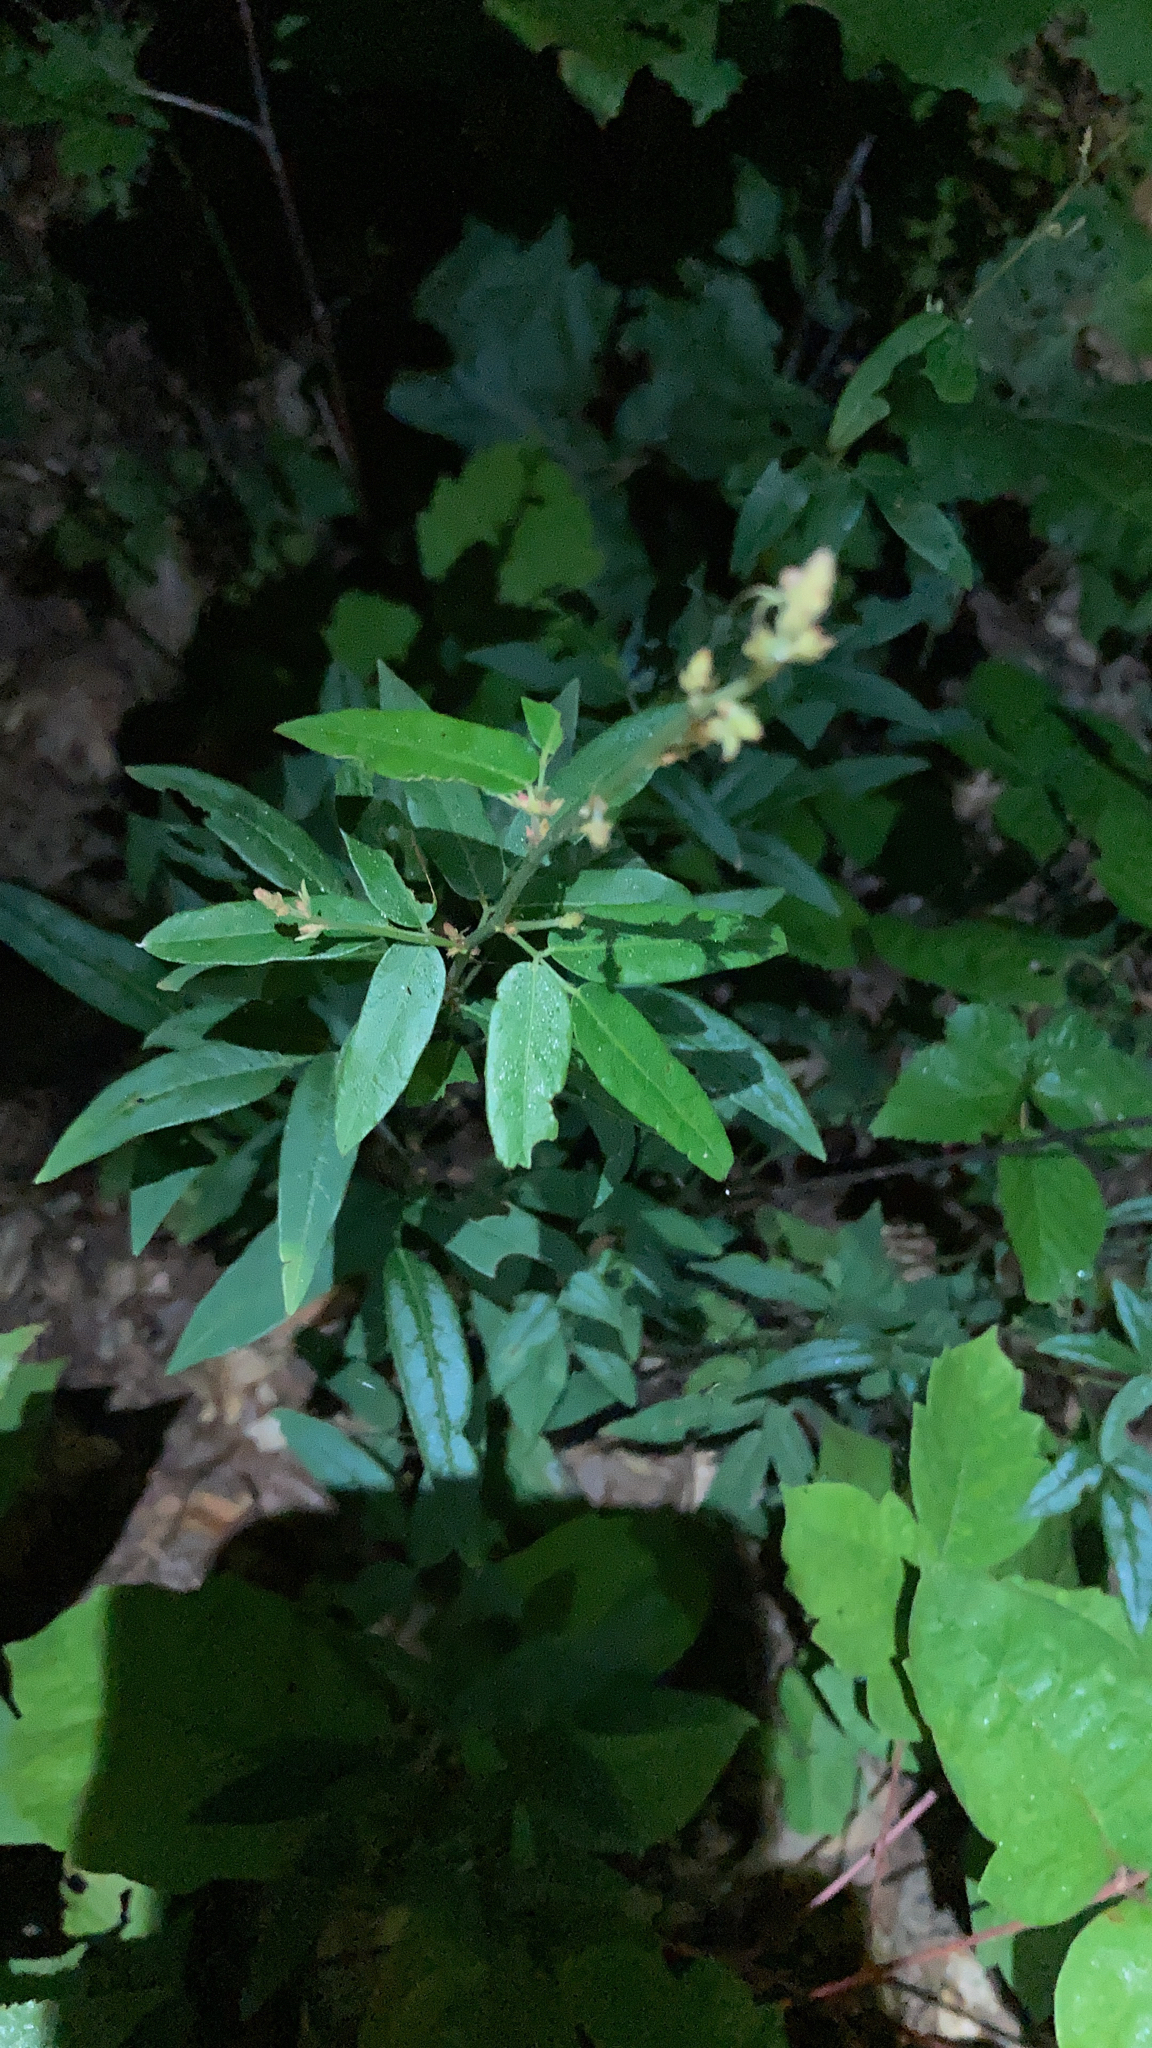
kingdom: Plantae
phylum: Tracheophyta
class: Magnoliopsida
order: Fabales
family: Fabaceae
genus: Desmodium
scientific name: Desmodium paniculatum
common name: Panicled tick-clover
